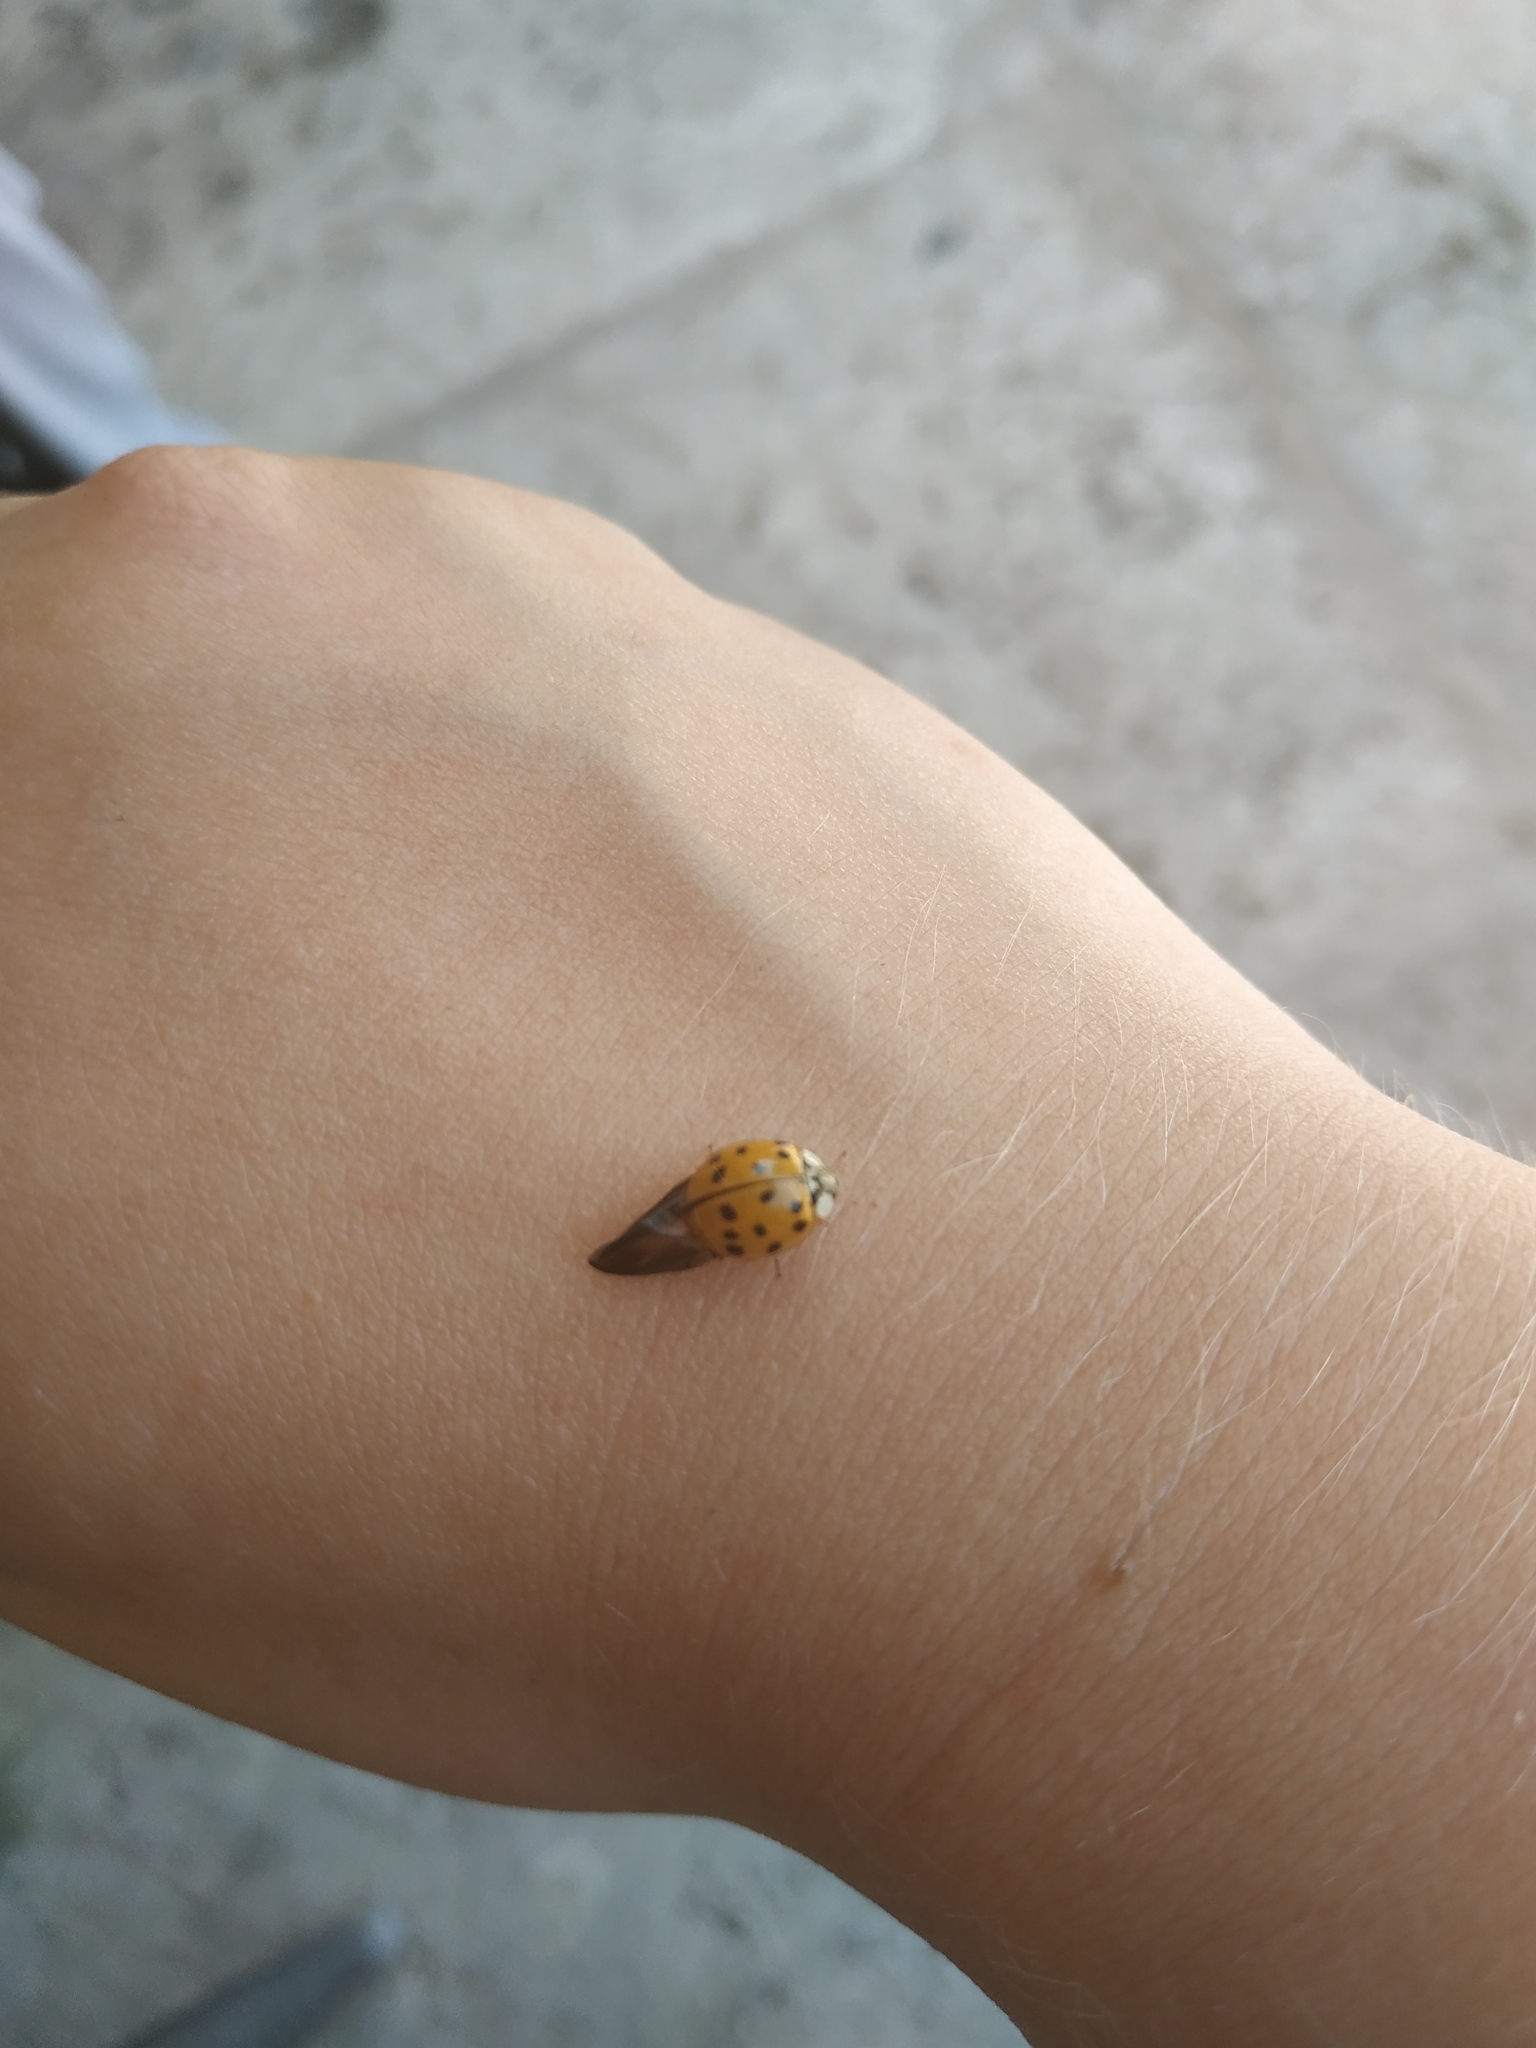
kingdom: Animalia
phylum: Arthropoda
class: Insecta
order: Coleoptera
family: Coccinellidae
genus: Harmonia
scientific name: Harmonia axyridis
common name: Harlequin ladybird
